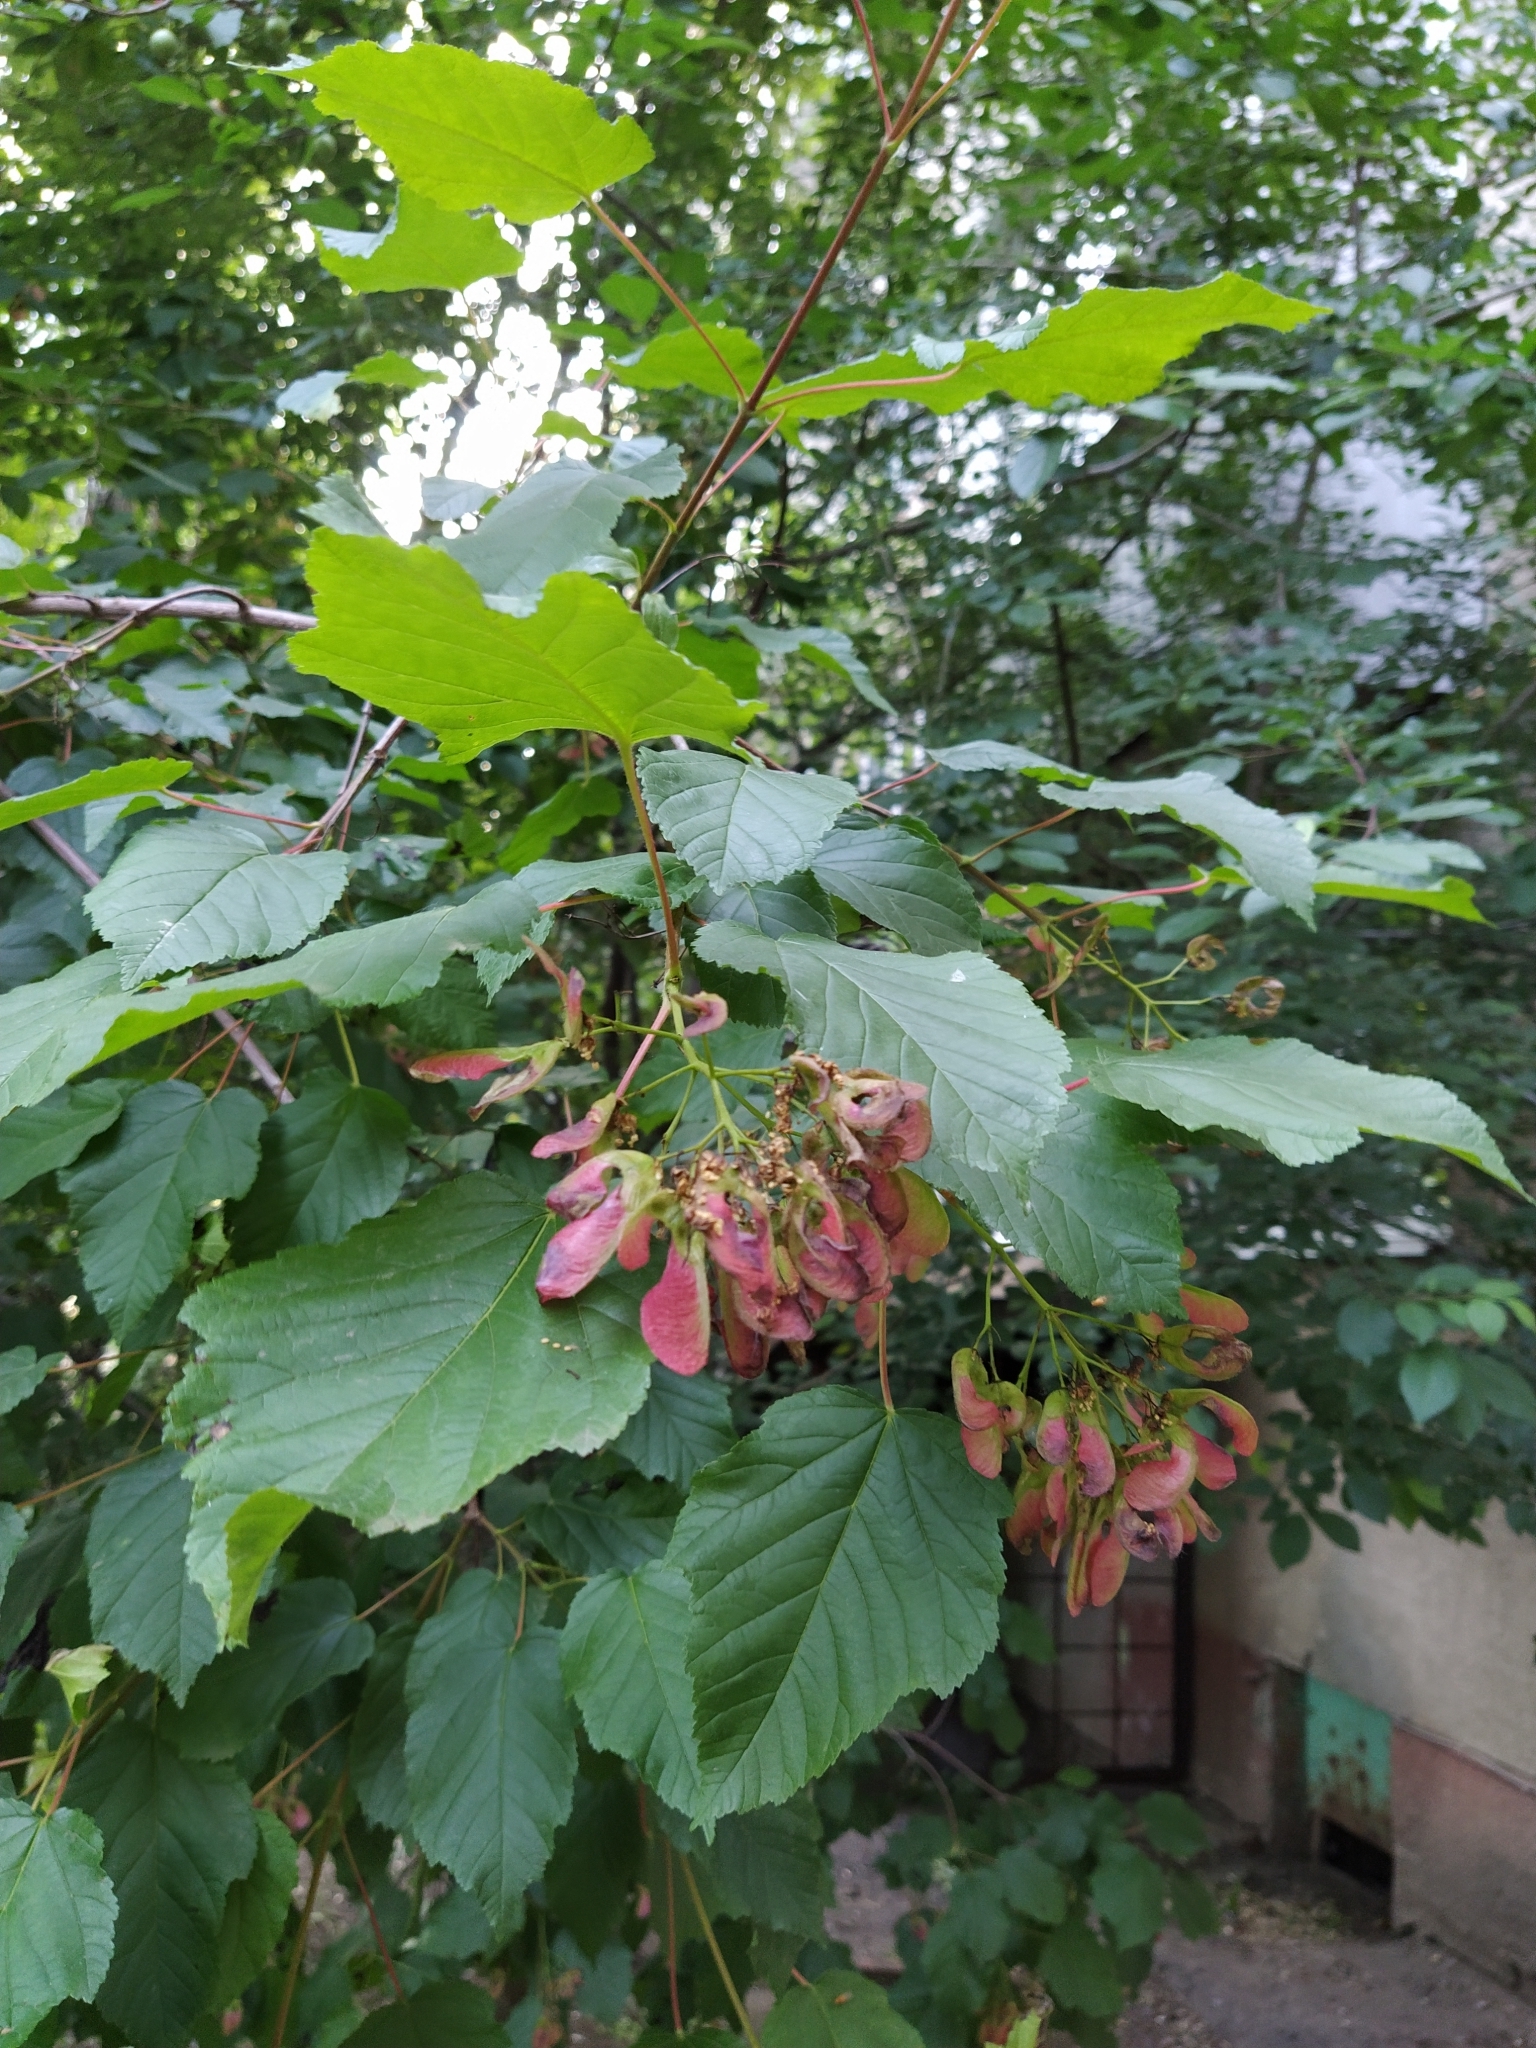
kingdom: Plantae
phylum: Tracheophyta
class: Magnoliopsida
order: Sapindales
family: Sapindaceae
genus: Acer
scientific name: Acer tataricum
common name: Tartar maple
